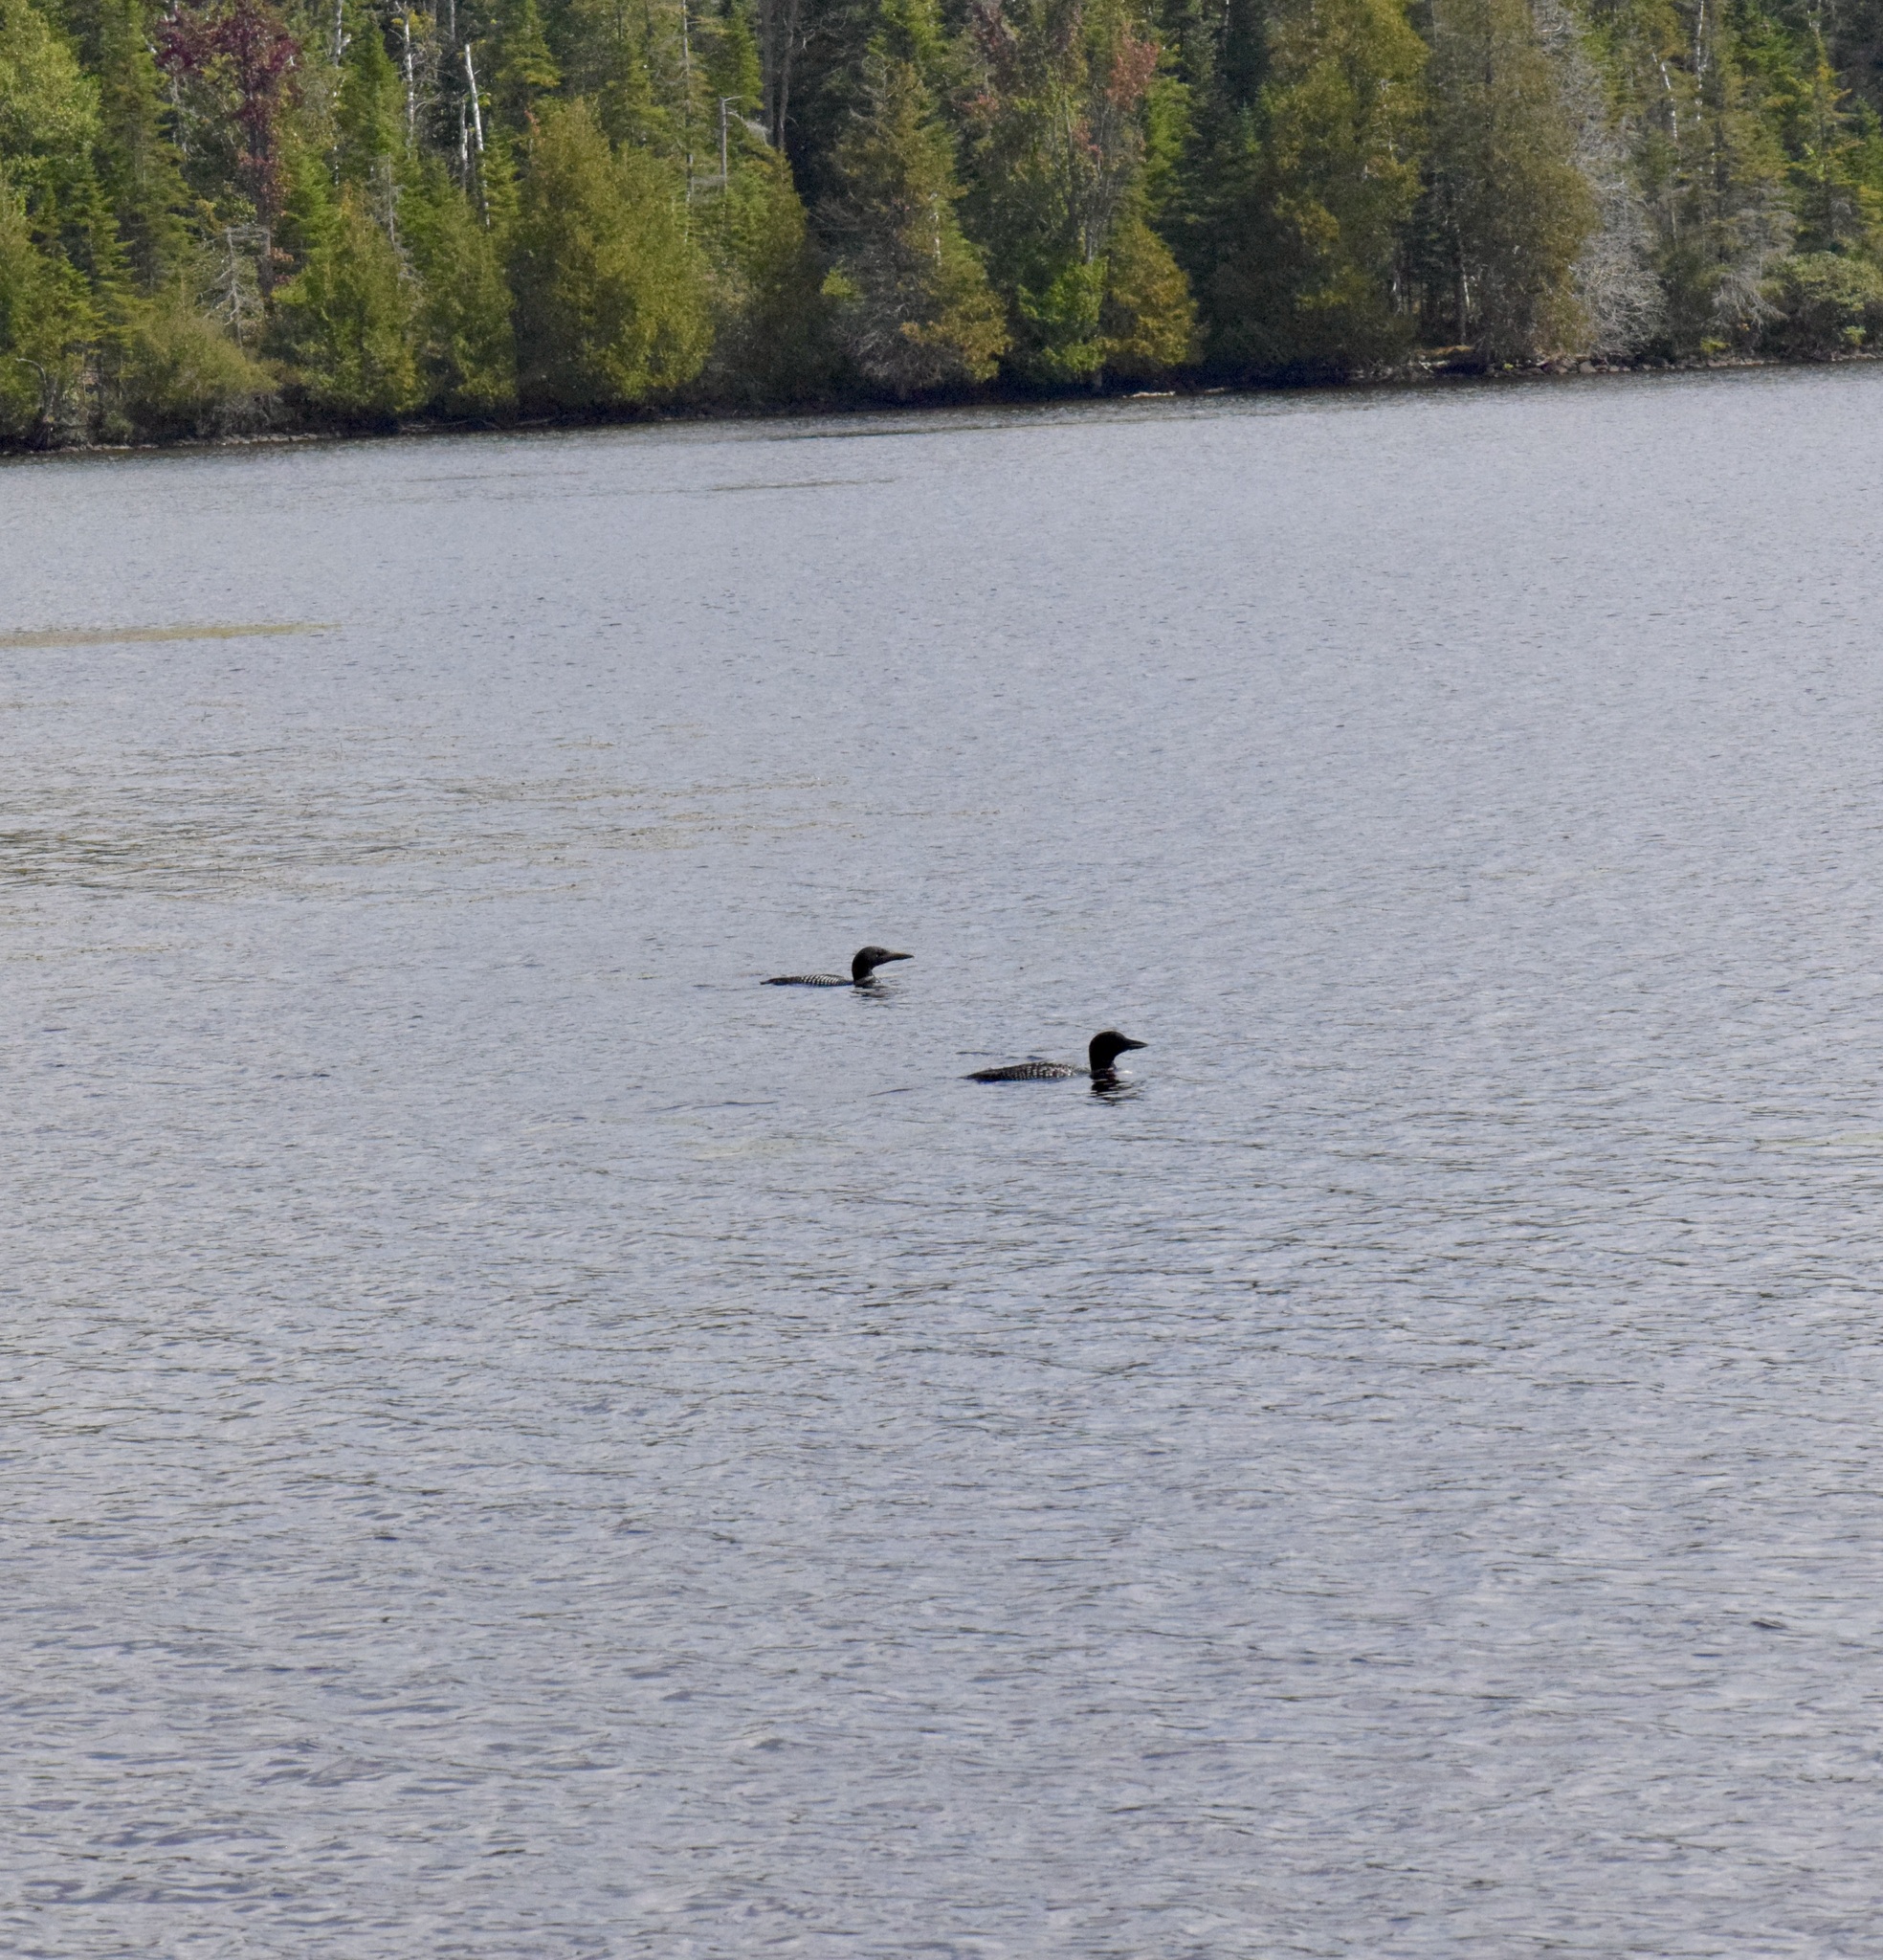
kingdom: Animalia
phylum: Chordata
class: Aves
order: Gaviiformes
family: Gaviidae
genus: Gavia
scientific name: Gavia immer
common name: Common loon
